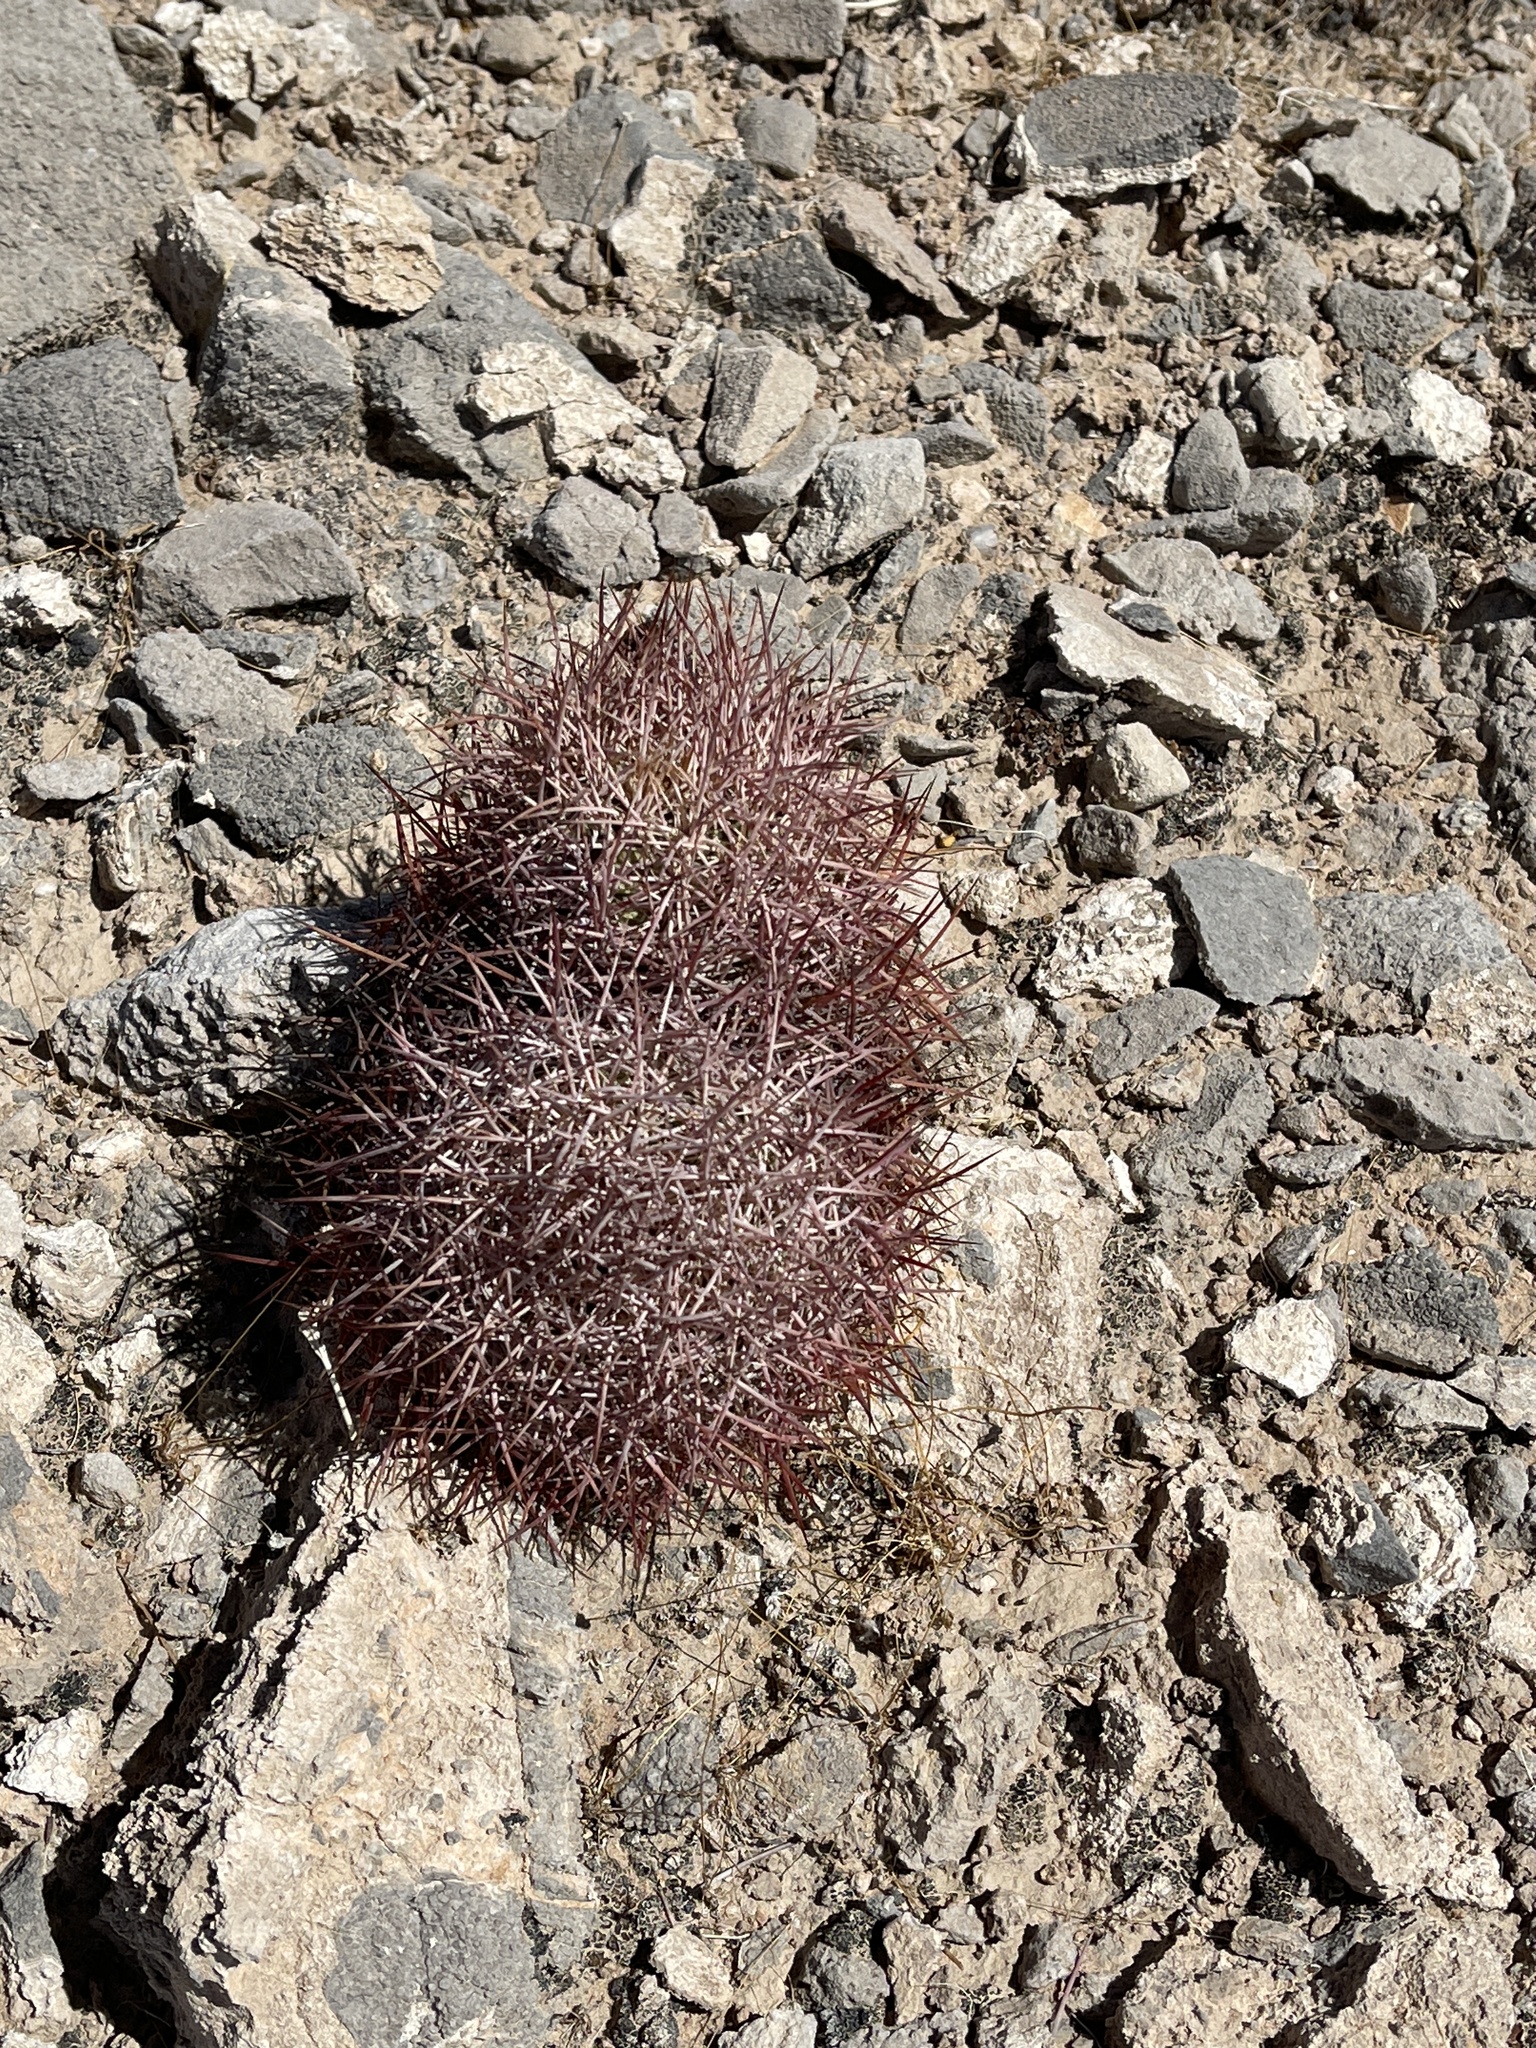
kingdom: Plantae
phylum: Tracheophyta
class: Magnoliopsida
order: Caryophyllales
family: Cactaceae
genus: Sclerocactus
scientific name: Sclerocactus johnsonii
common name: Eight-spine fishhook cactus
